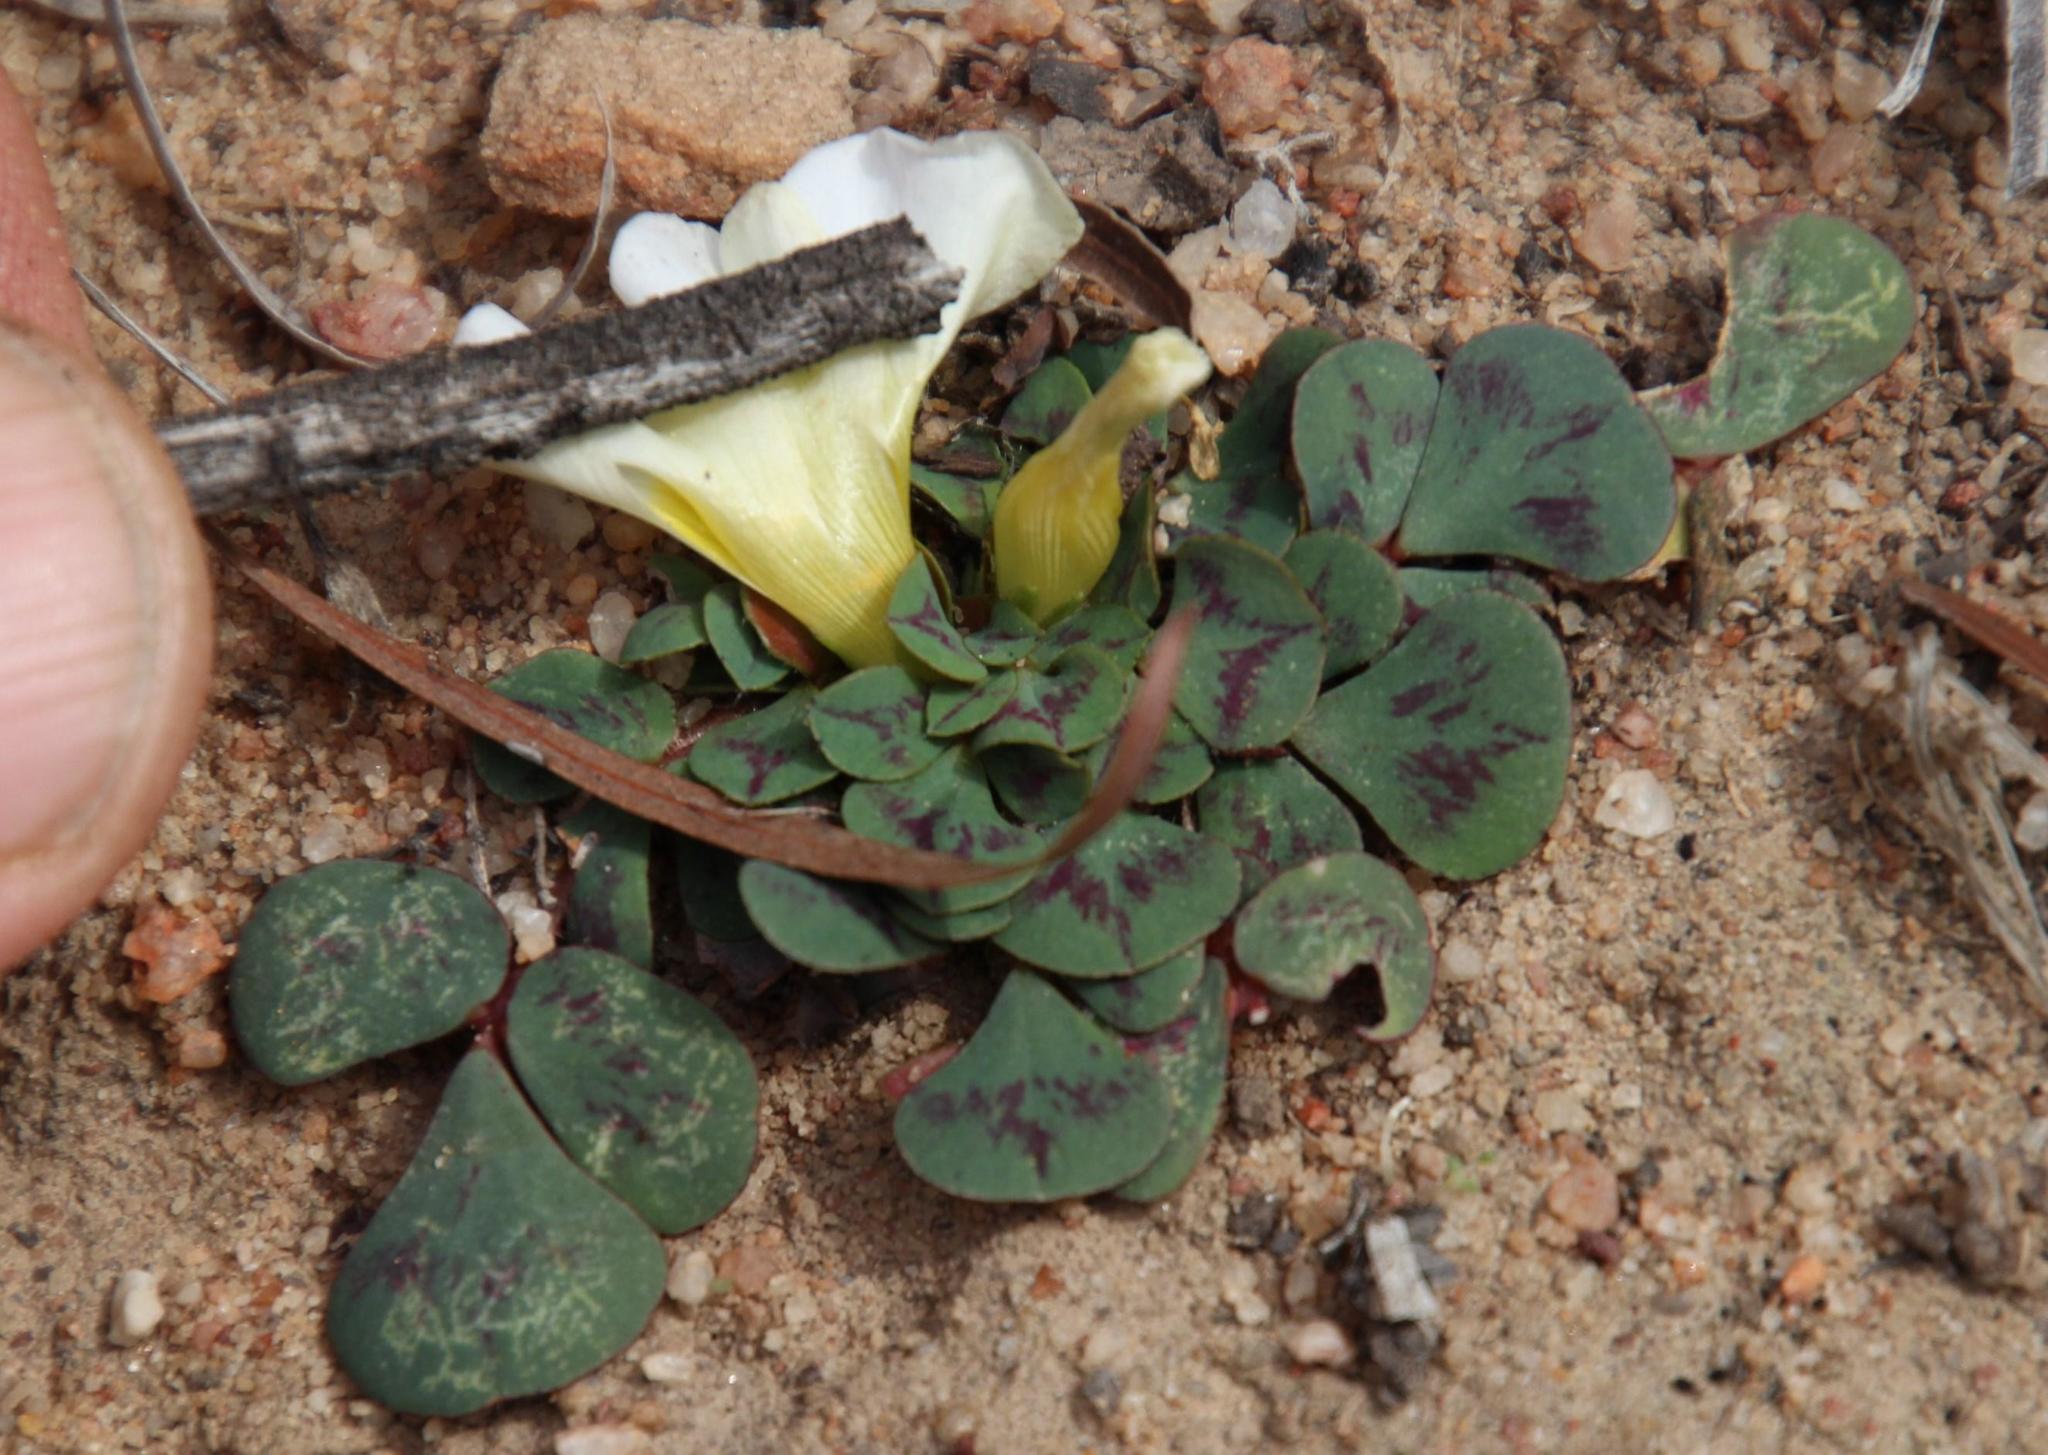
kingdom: Plantae
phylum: Tracheophyta
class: Magnoliopsida
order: Oxalidales
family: Oxalidaceae
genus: Oxalis
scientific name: Oxalis purpurea
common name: Purple woodsorrel
